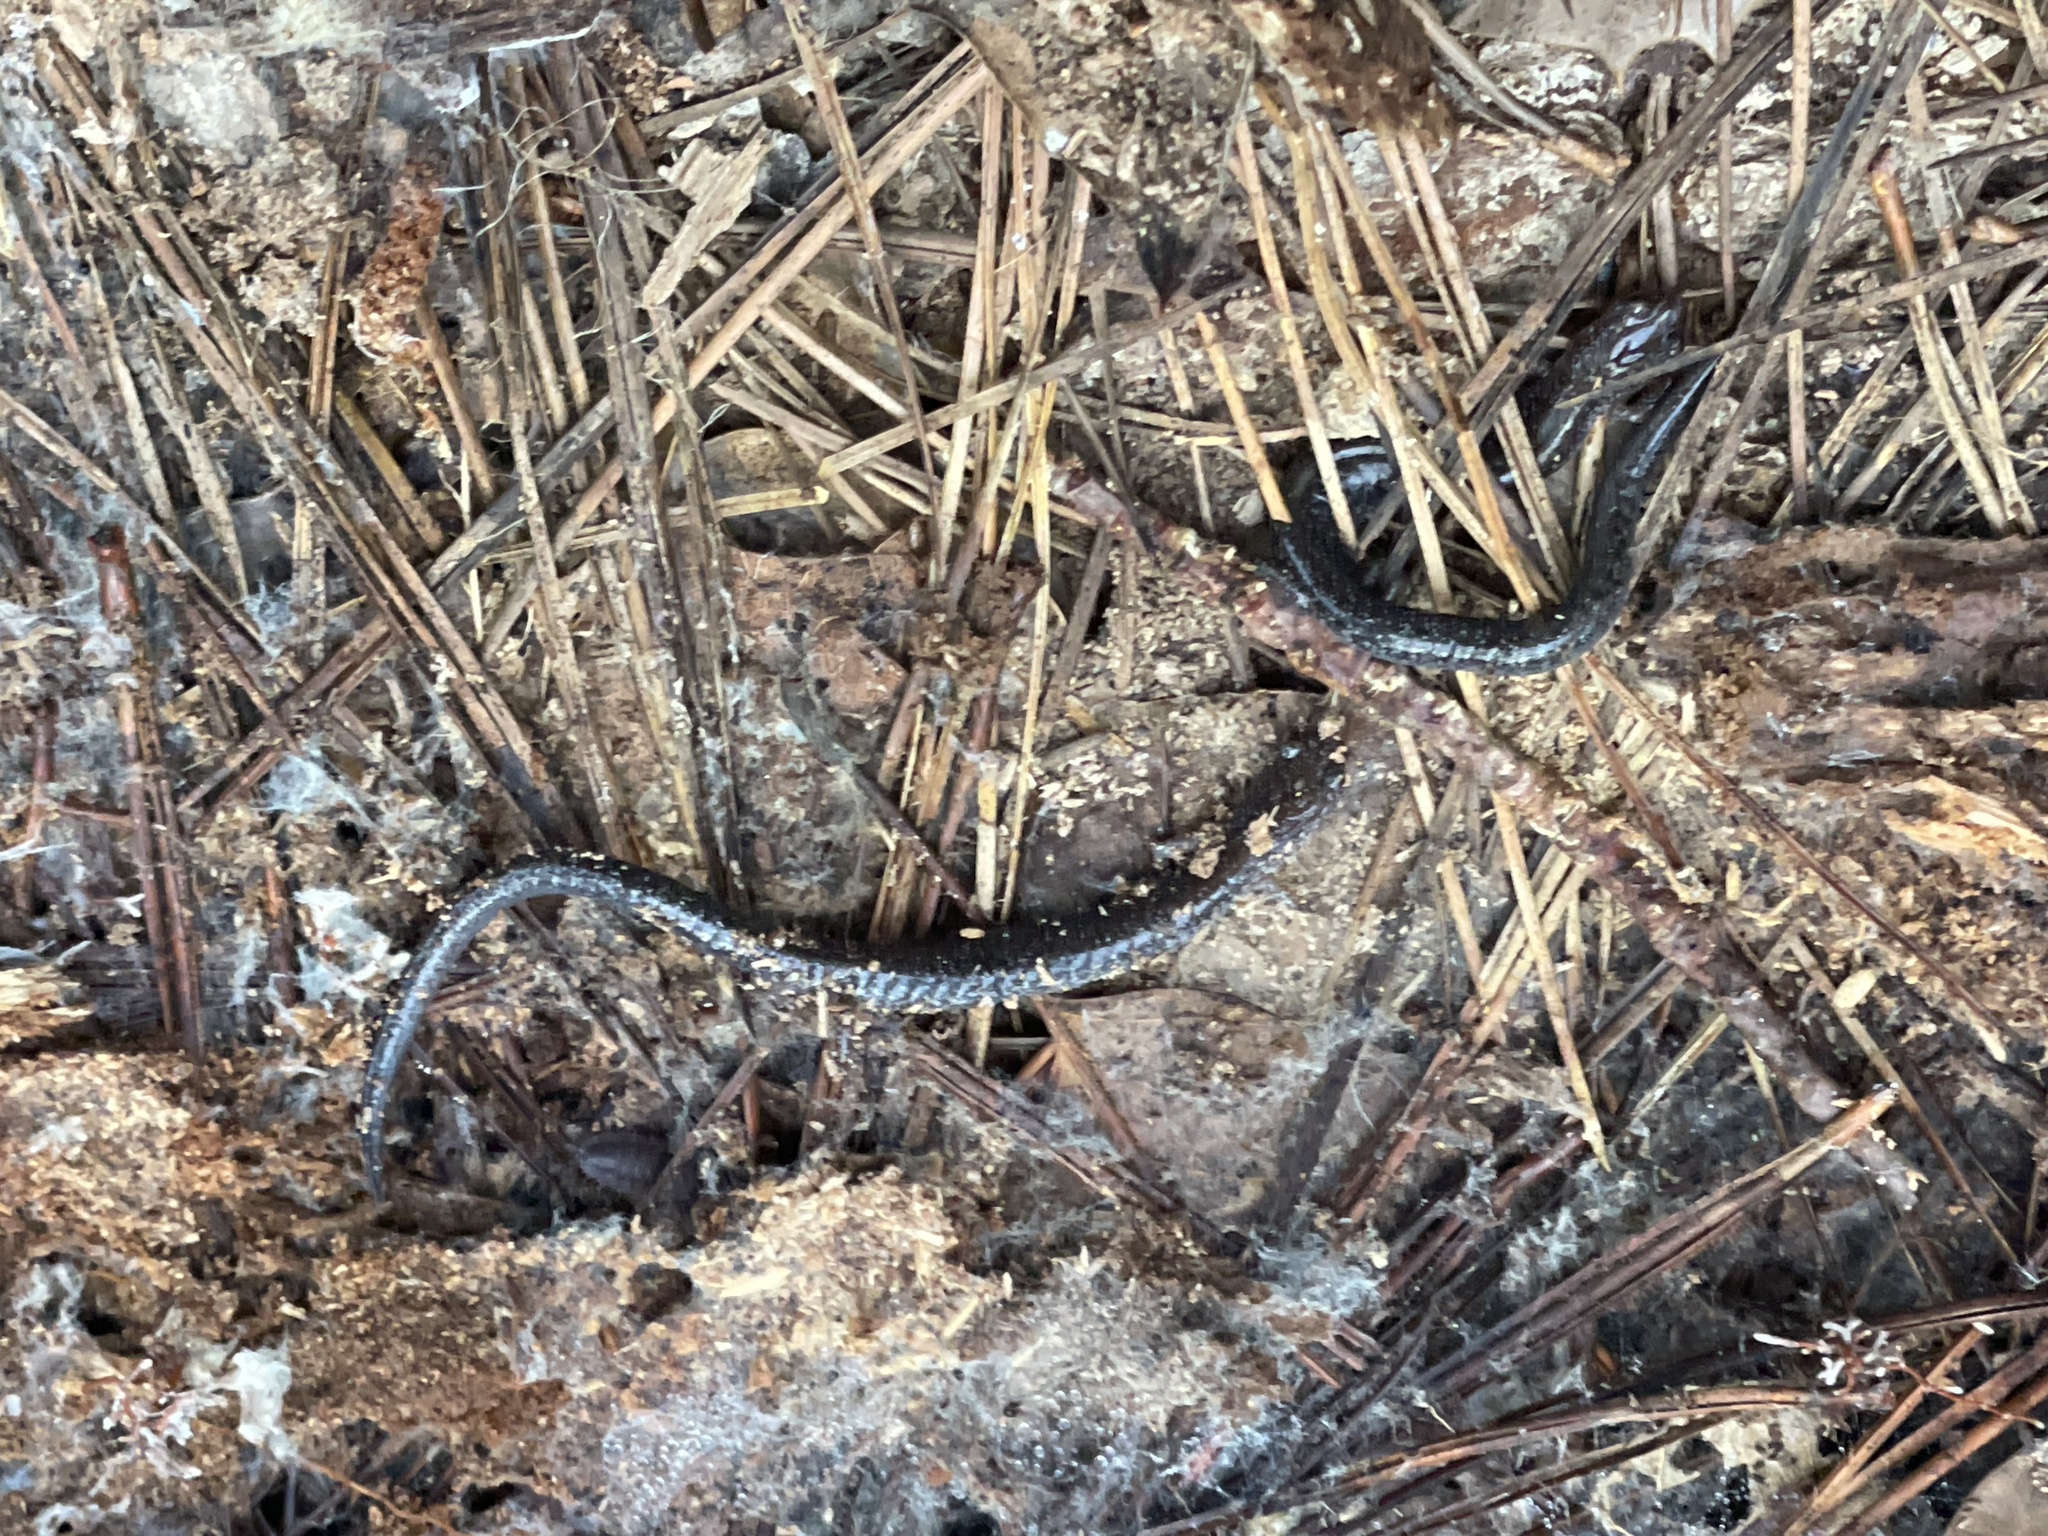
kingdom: Animalia
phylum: Chordata
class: Amphibia
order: Caudata
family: Plethodontidae
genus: Plethodon
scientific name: Plethodon cinereus
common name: Redback salamander
